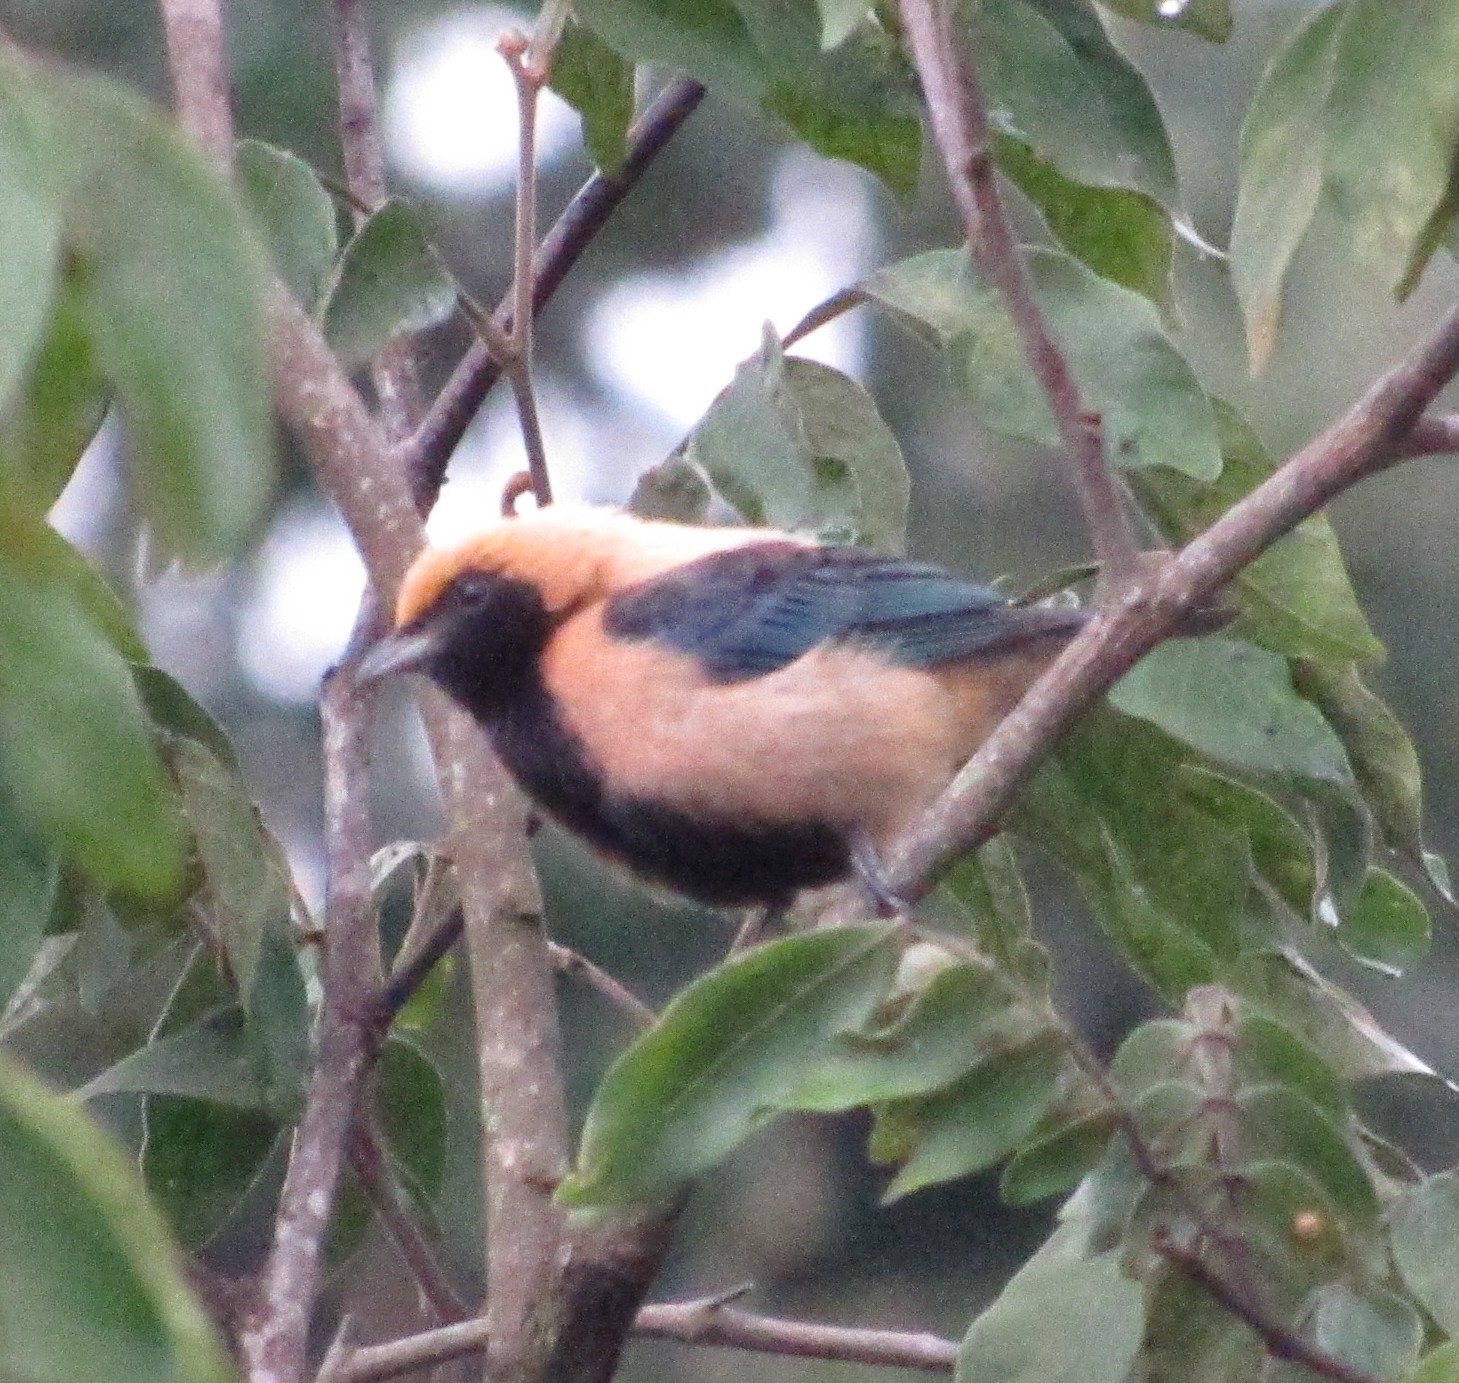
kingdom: Animalia
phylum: Chordata
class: Aves
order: Passeriformes
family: Thraupidae
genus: Stilpnia
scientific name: Stilpnia cayana
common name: Burnished-buff tanager
